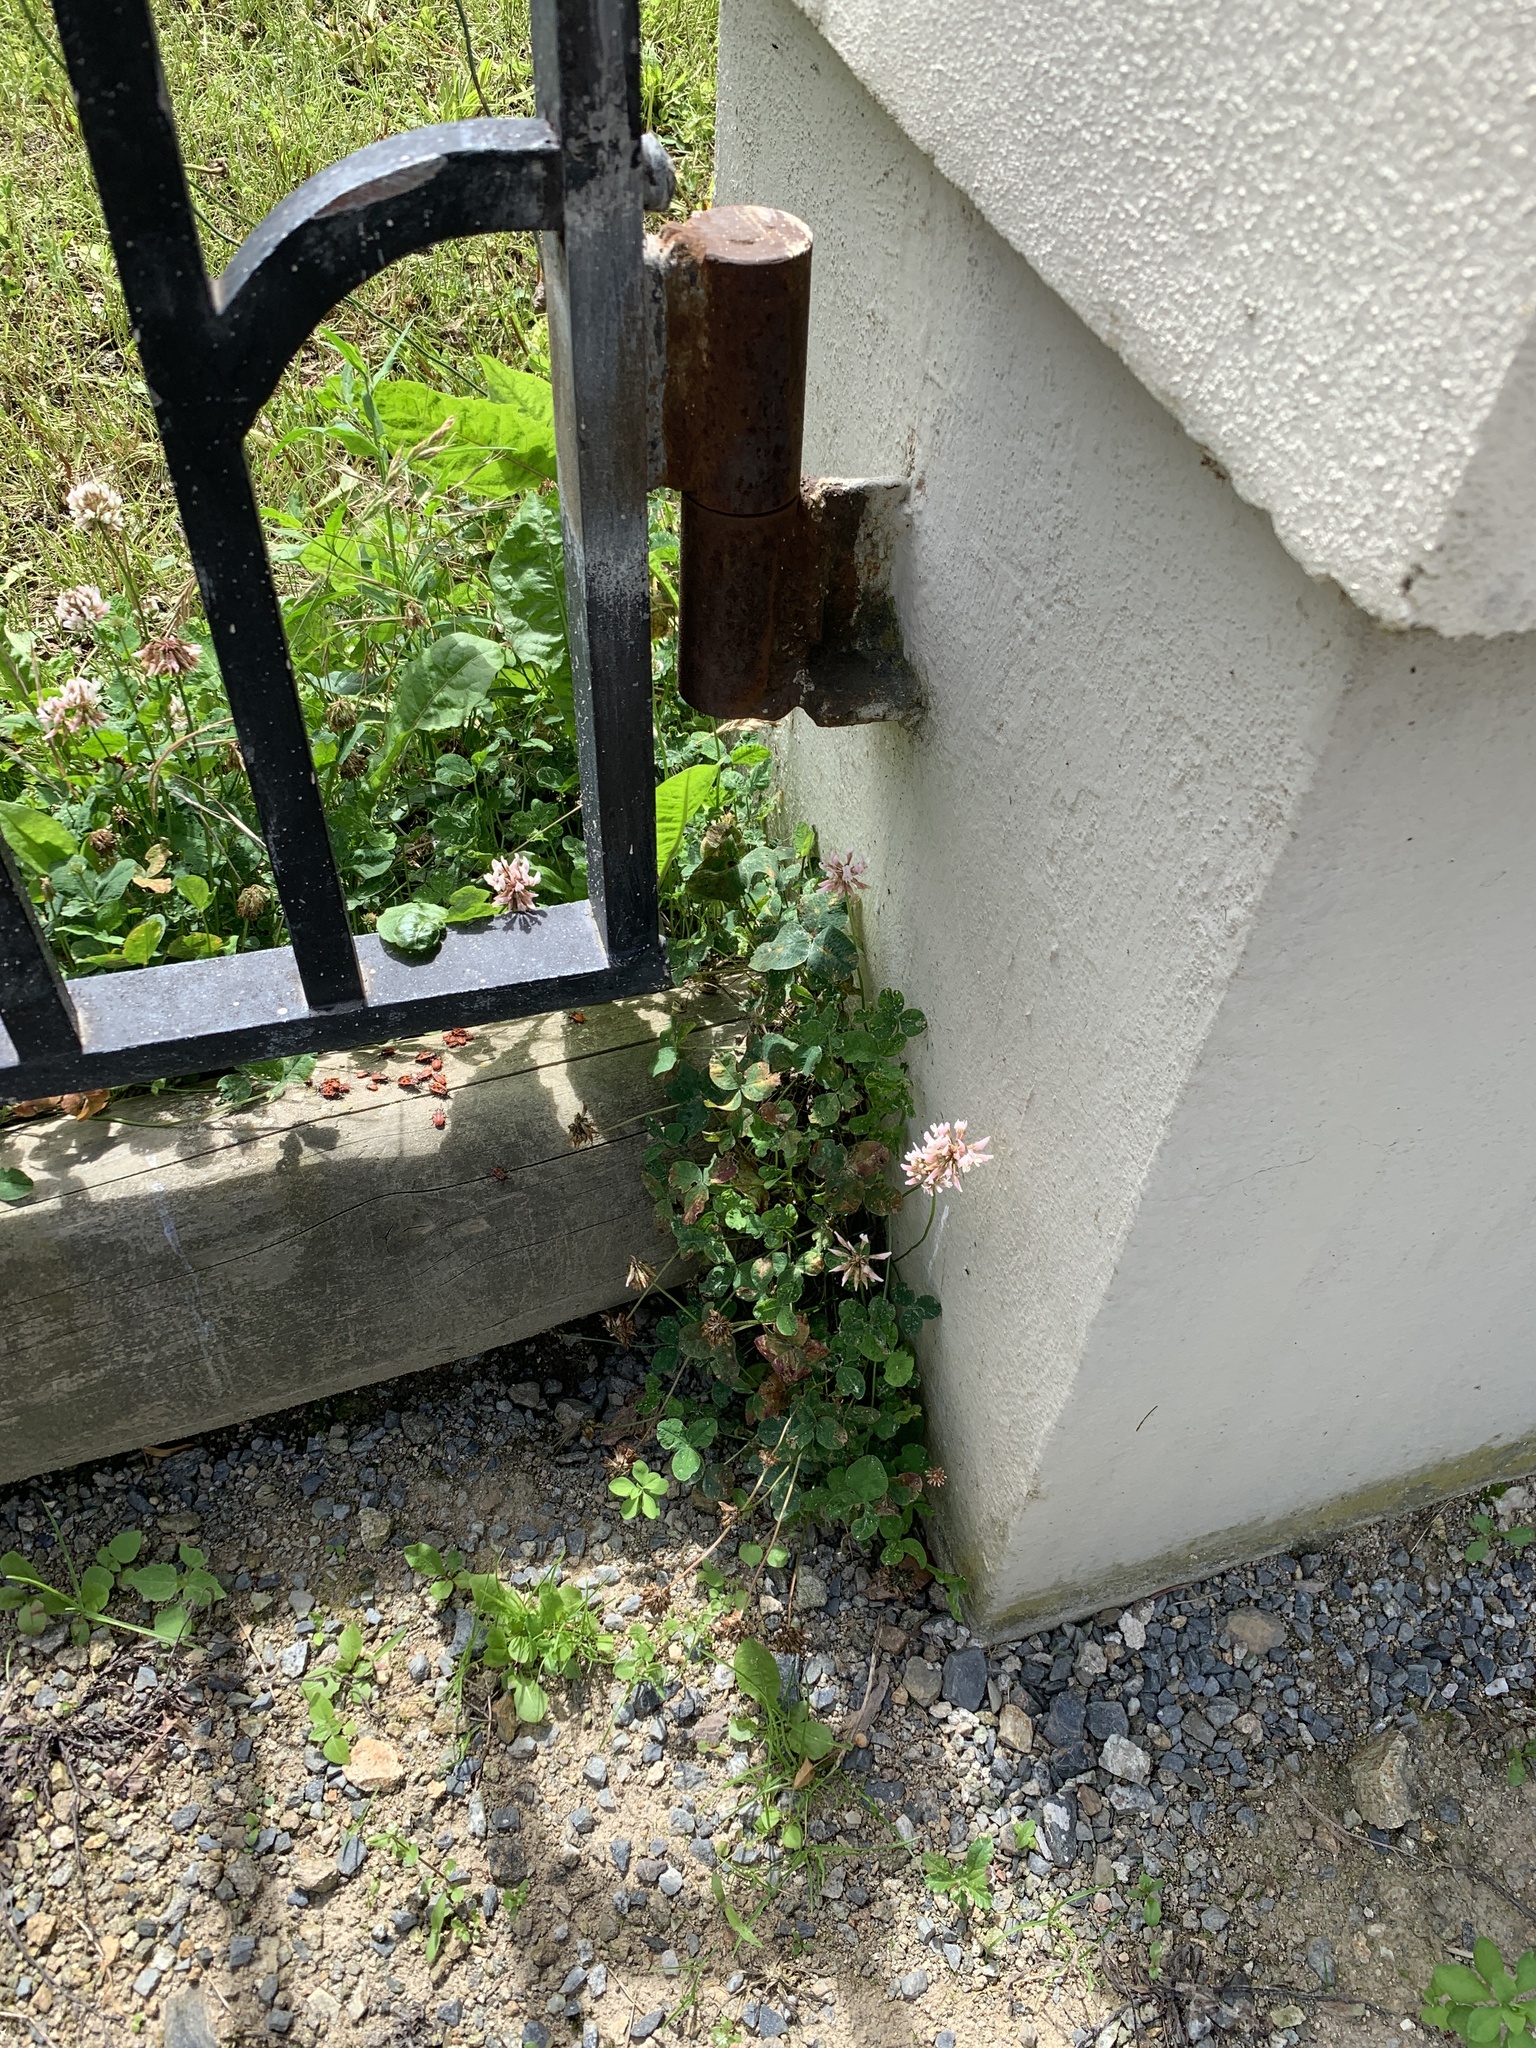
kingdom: Plantae
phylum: Tracheophyta
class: Magnoliopsida
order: Fabales
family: Fabaceae
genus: Trifolium
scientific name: Trifolium repens
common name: White clover
